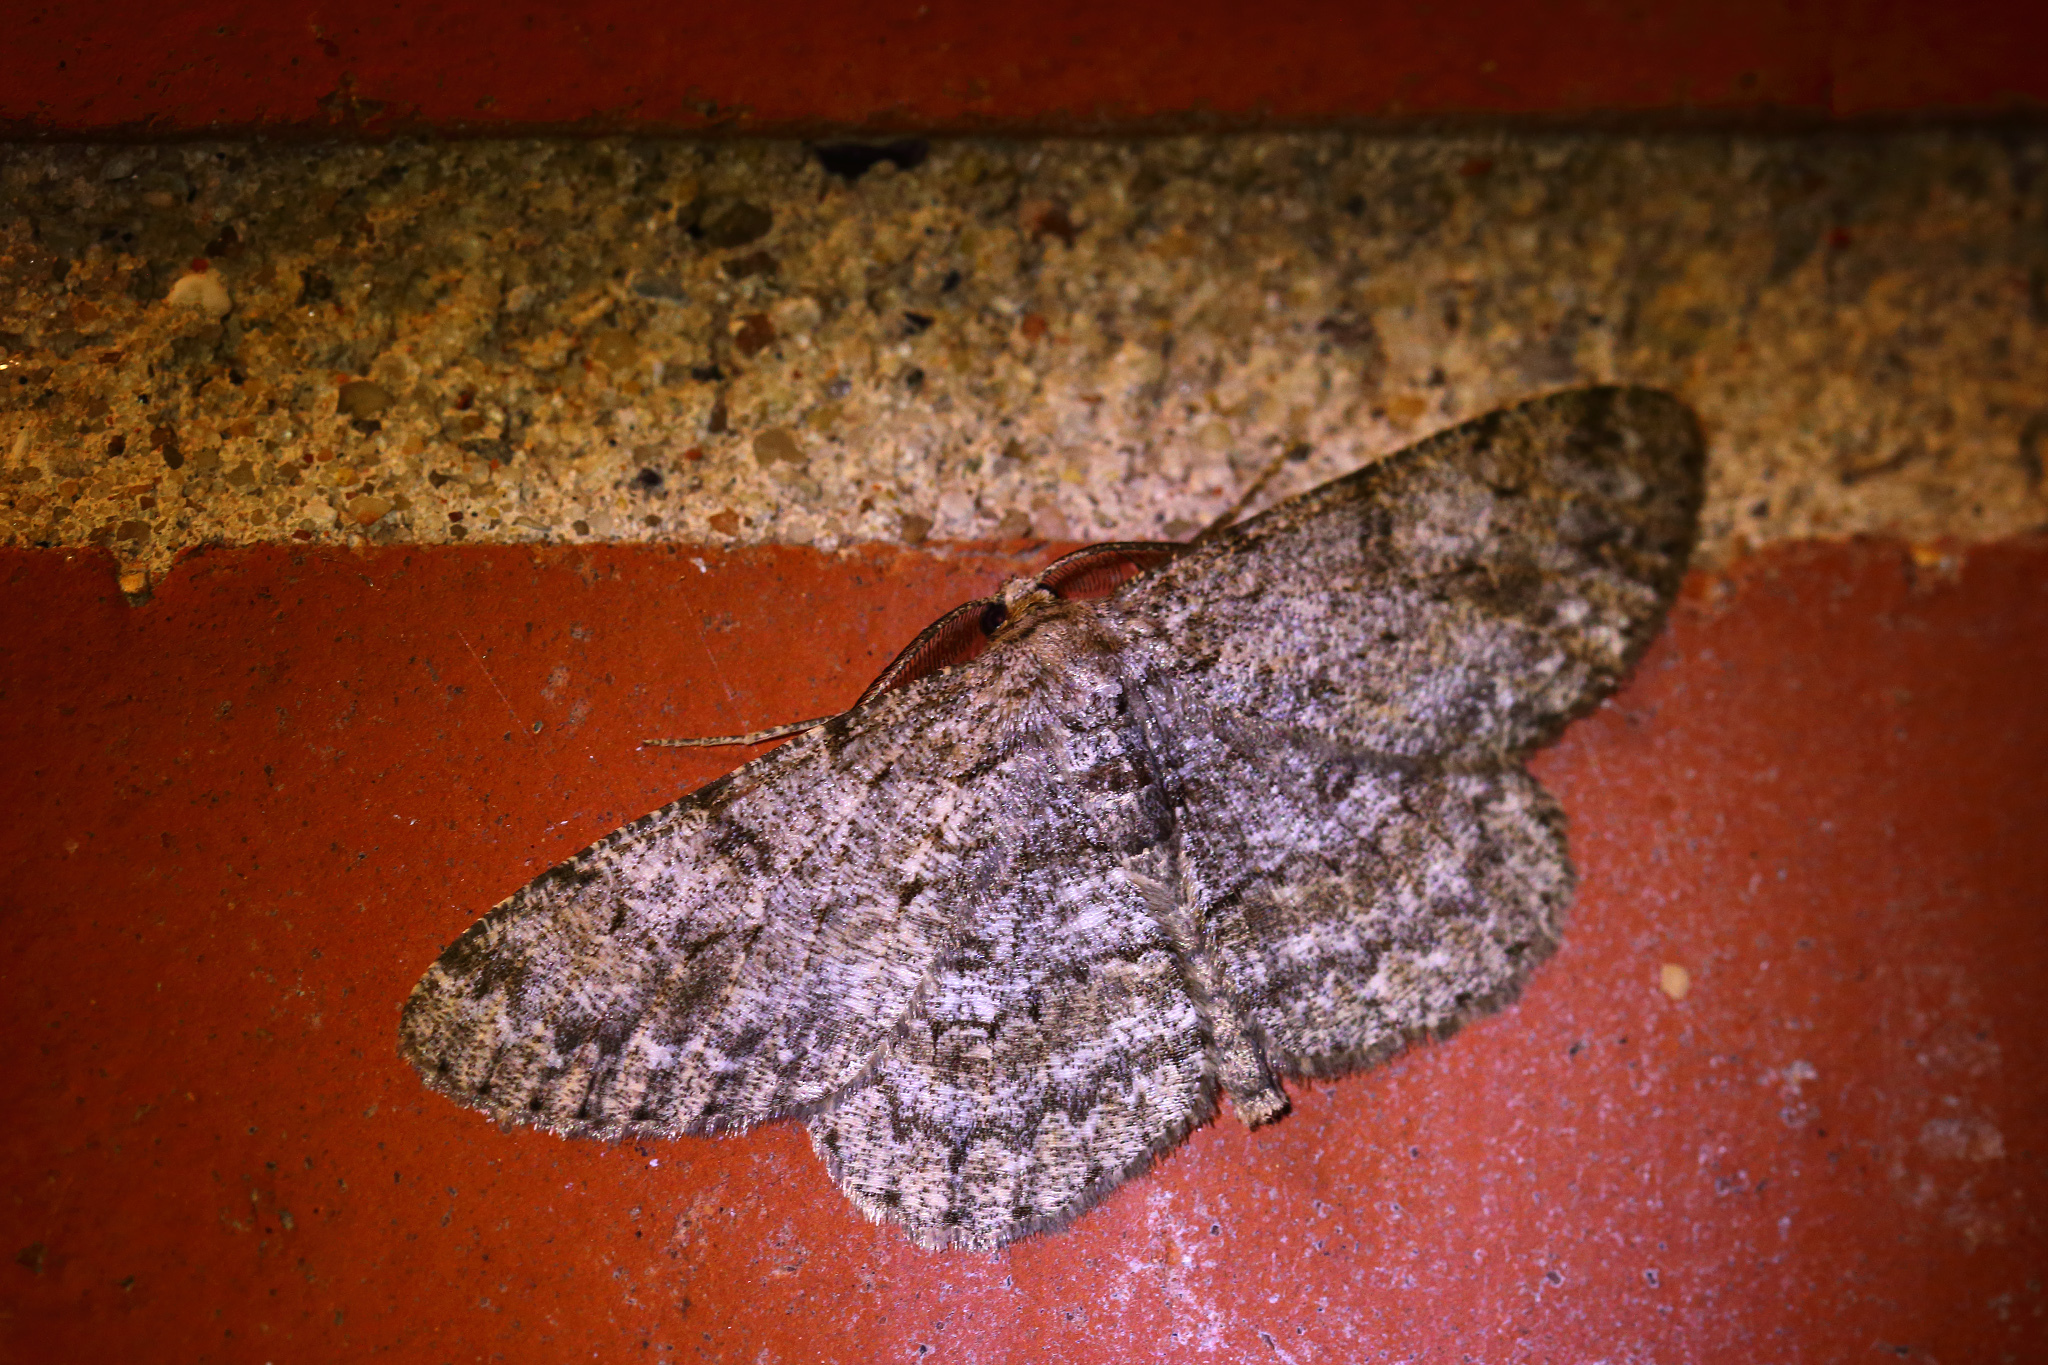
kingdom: Animalia
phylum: Arthropoda
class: Insecta
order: Lepidoptera
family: Geometridae
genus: Hypomecis
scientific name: Hypomecis punctinalis
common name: Pale oak beauty
